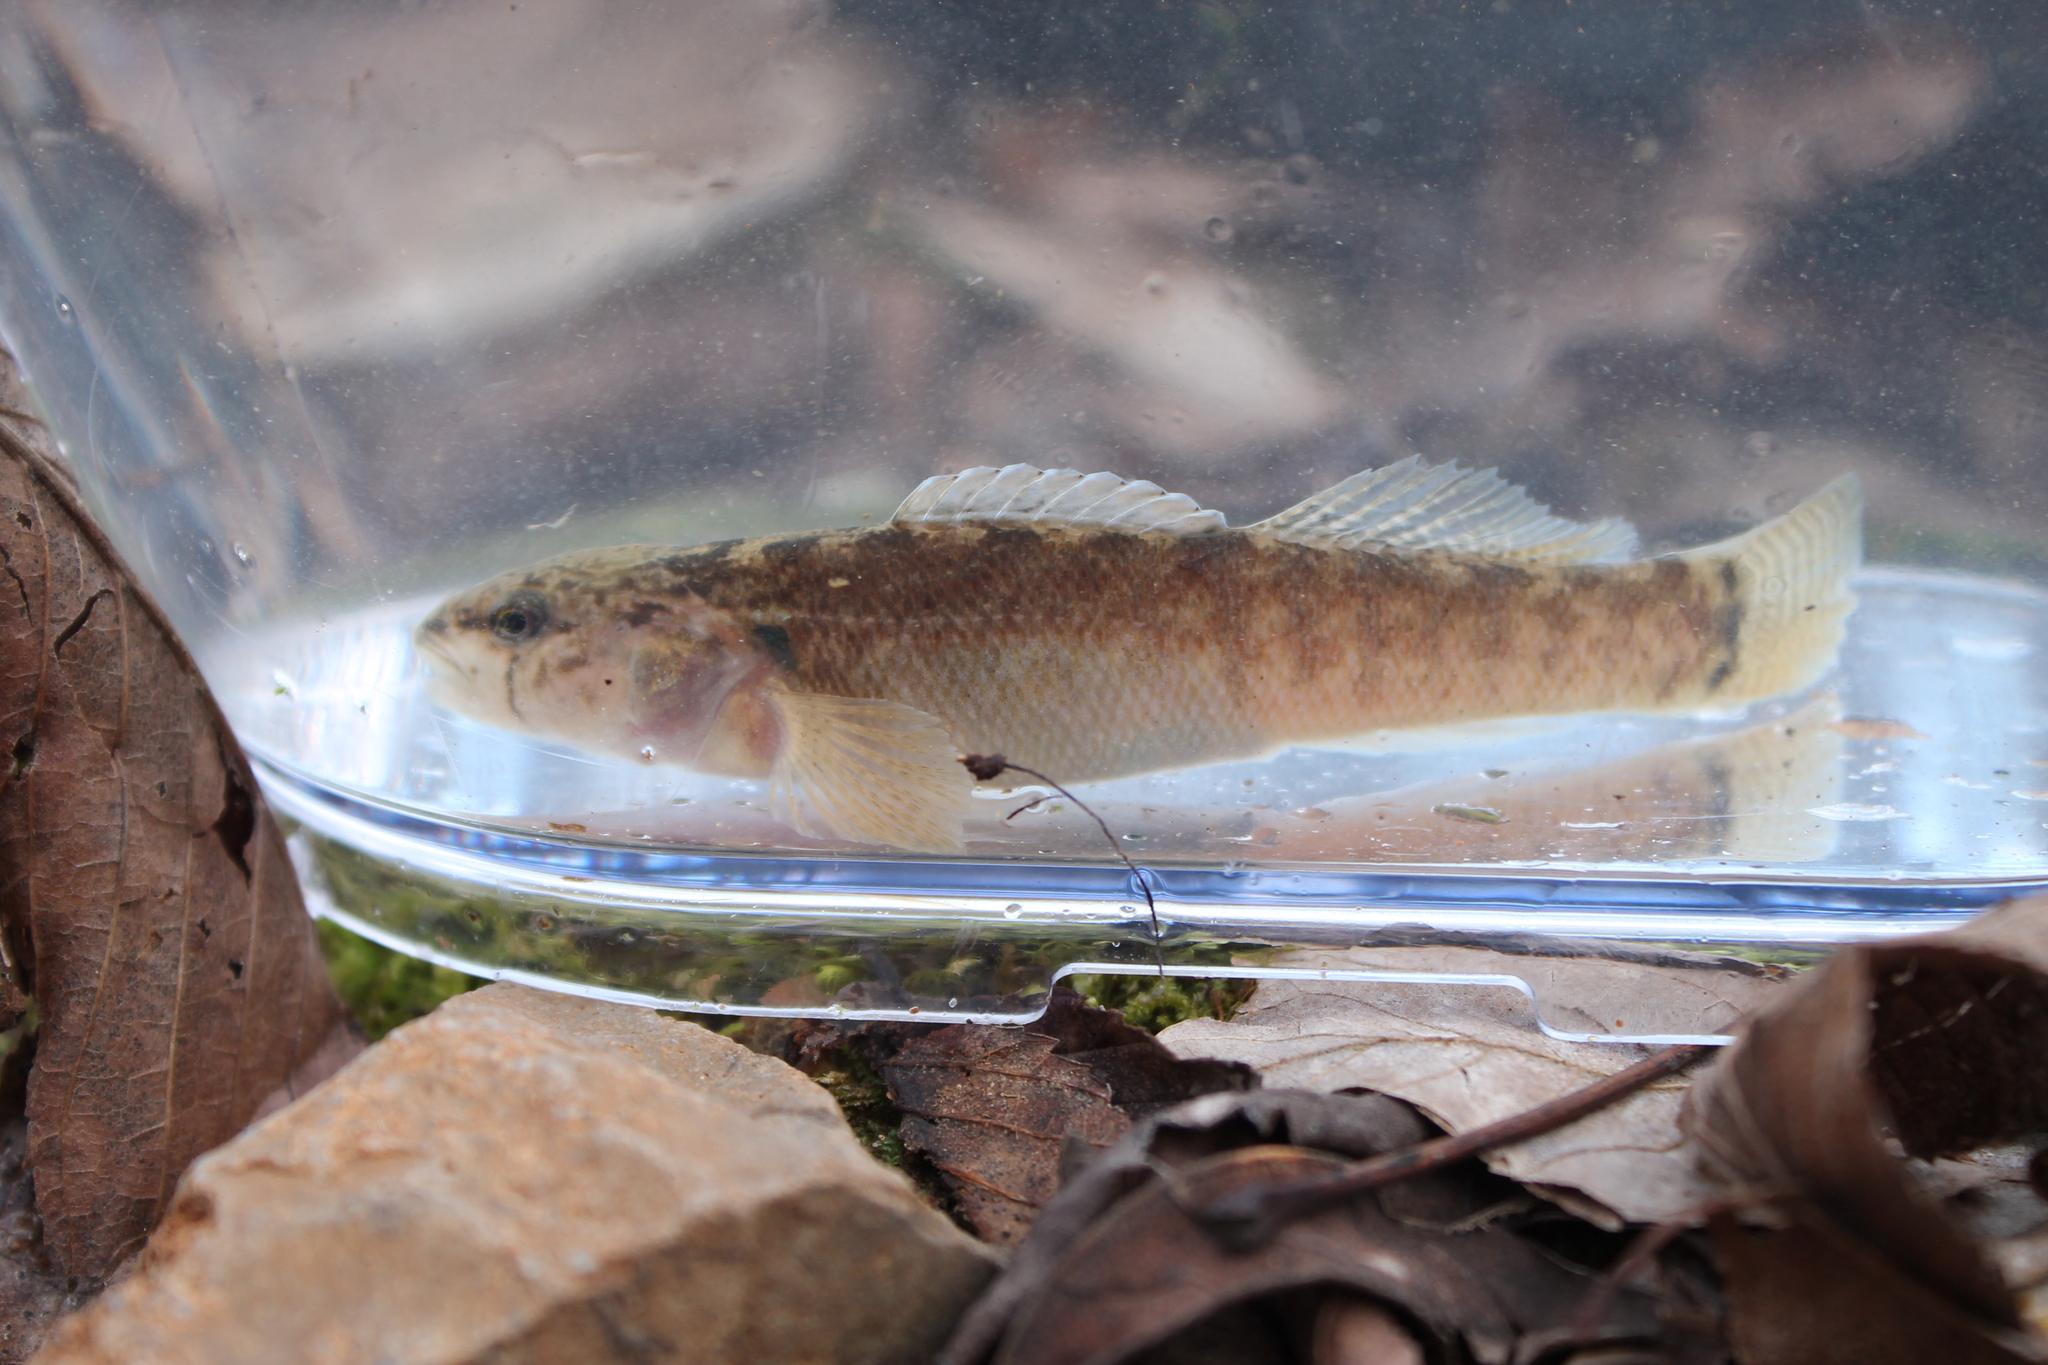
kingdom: Animalia
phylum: Chordata
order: Perciformes
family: Percidae
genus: Etheostoma
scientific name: Etheostoma crossopterum
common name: Fringed darter
